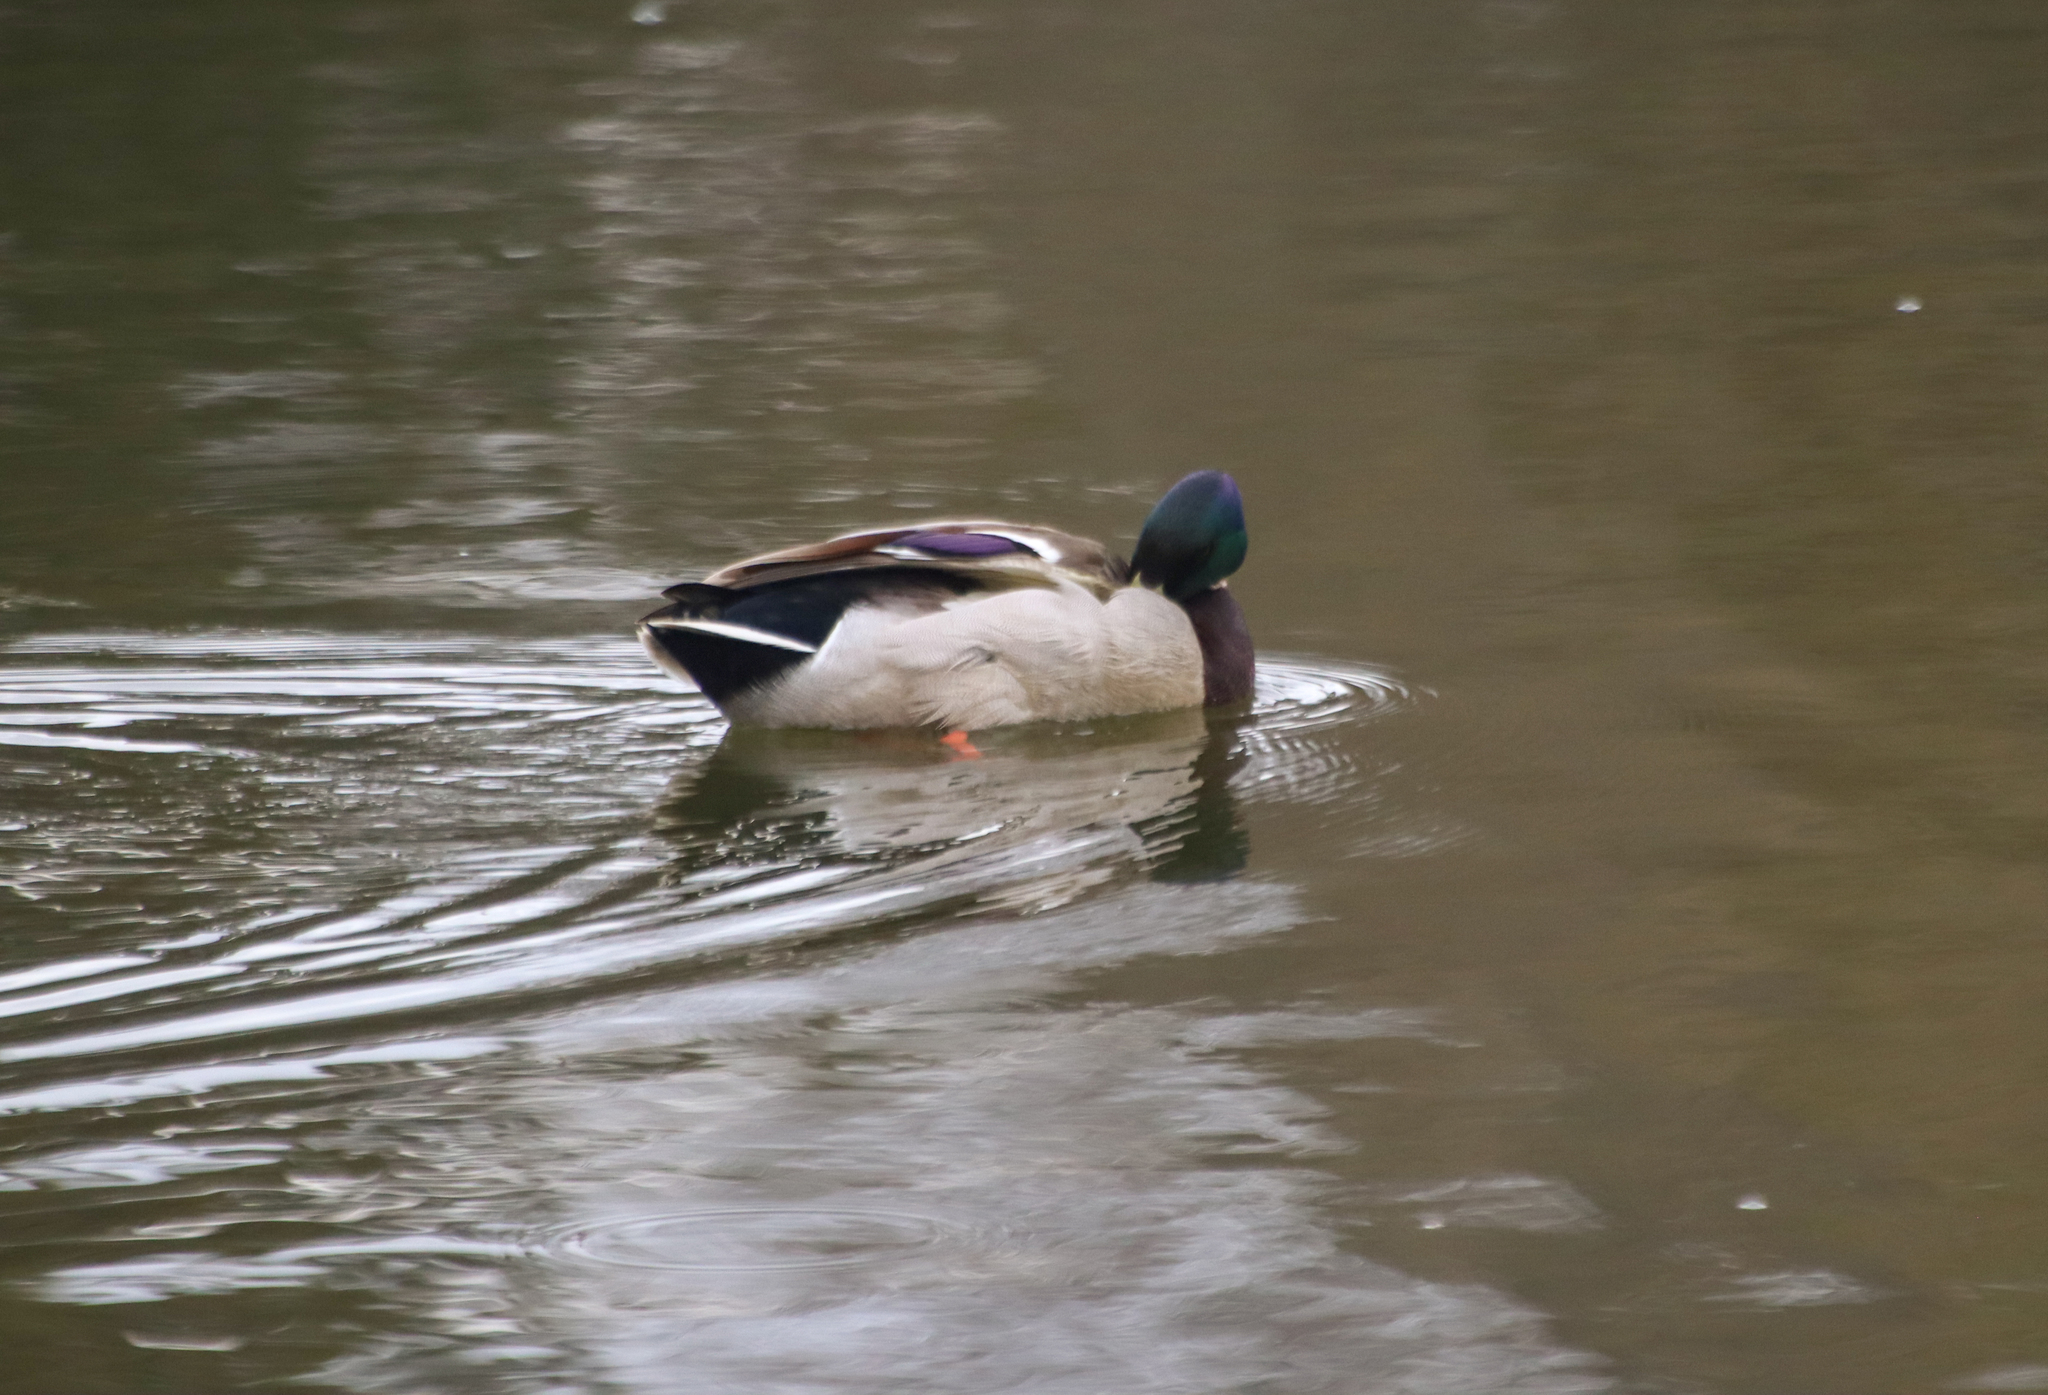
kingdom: Animalia
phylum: Chordata
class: Aves
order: Anseriformes
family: Anatidae
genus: Anas
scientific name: Anas platyrhynchos
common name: Mallard
